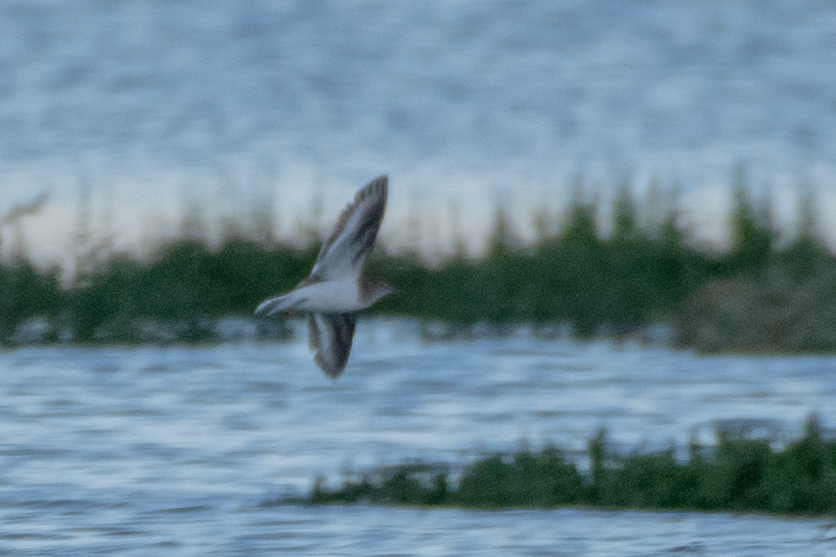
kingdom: Animalia
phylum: Chordata
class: Aves
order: Charadriiformes
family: Scolopacidae
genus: Actitis
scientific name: Actitis hypoleucos
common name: Common sandpiper
